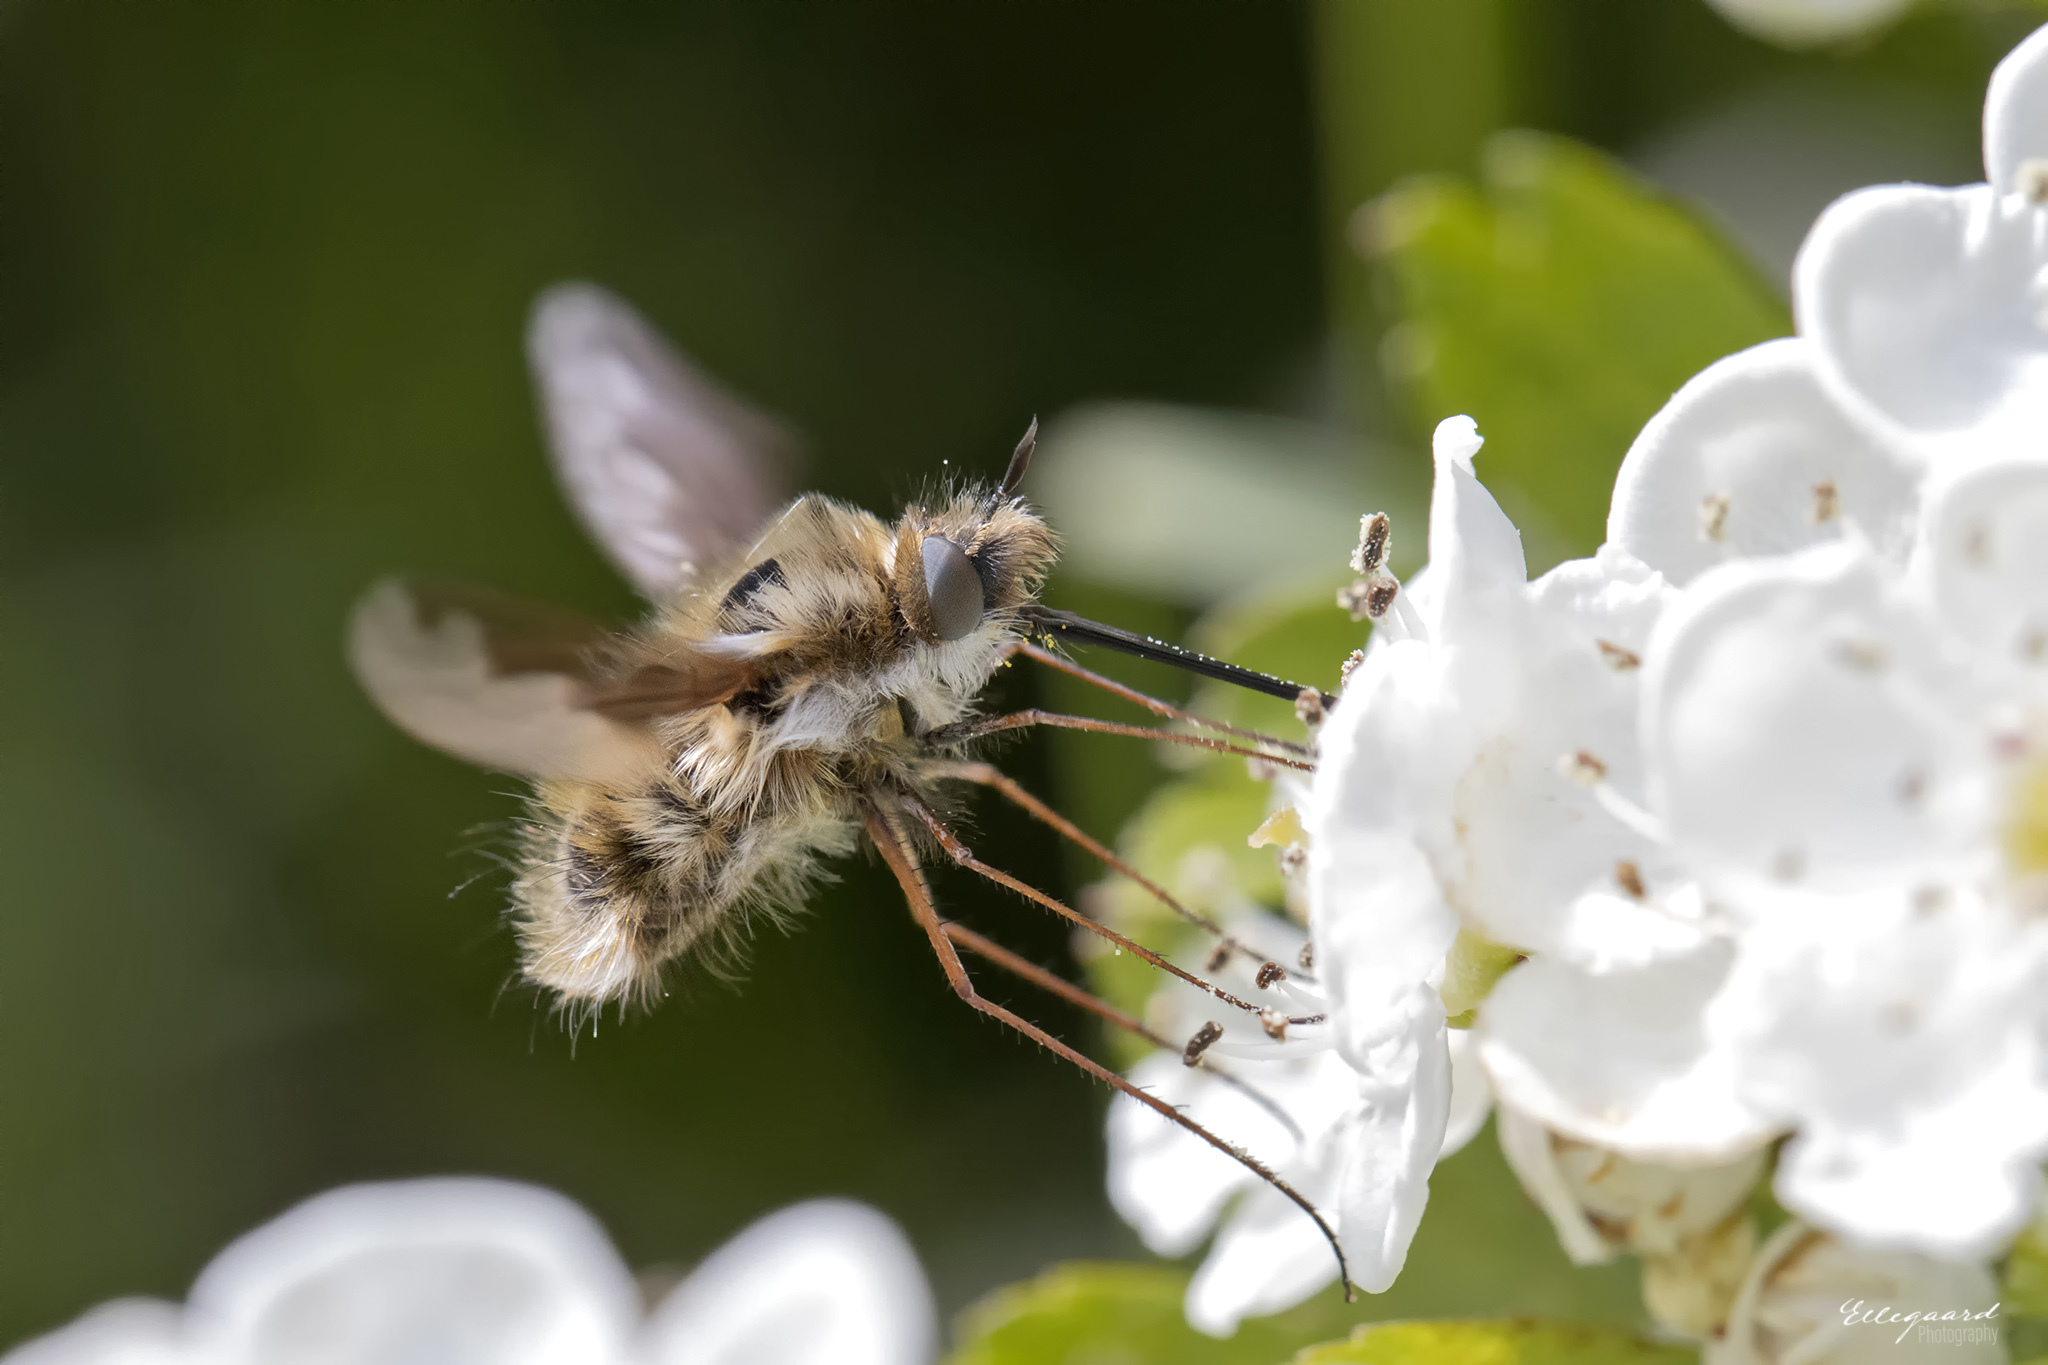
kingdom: Animalia
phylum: Arthropoda
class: Insecta
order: Diptera
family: Bombyliidae
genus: Bombylius
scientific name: Bombylius major
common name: Bee fly
